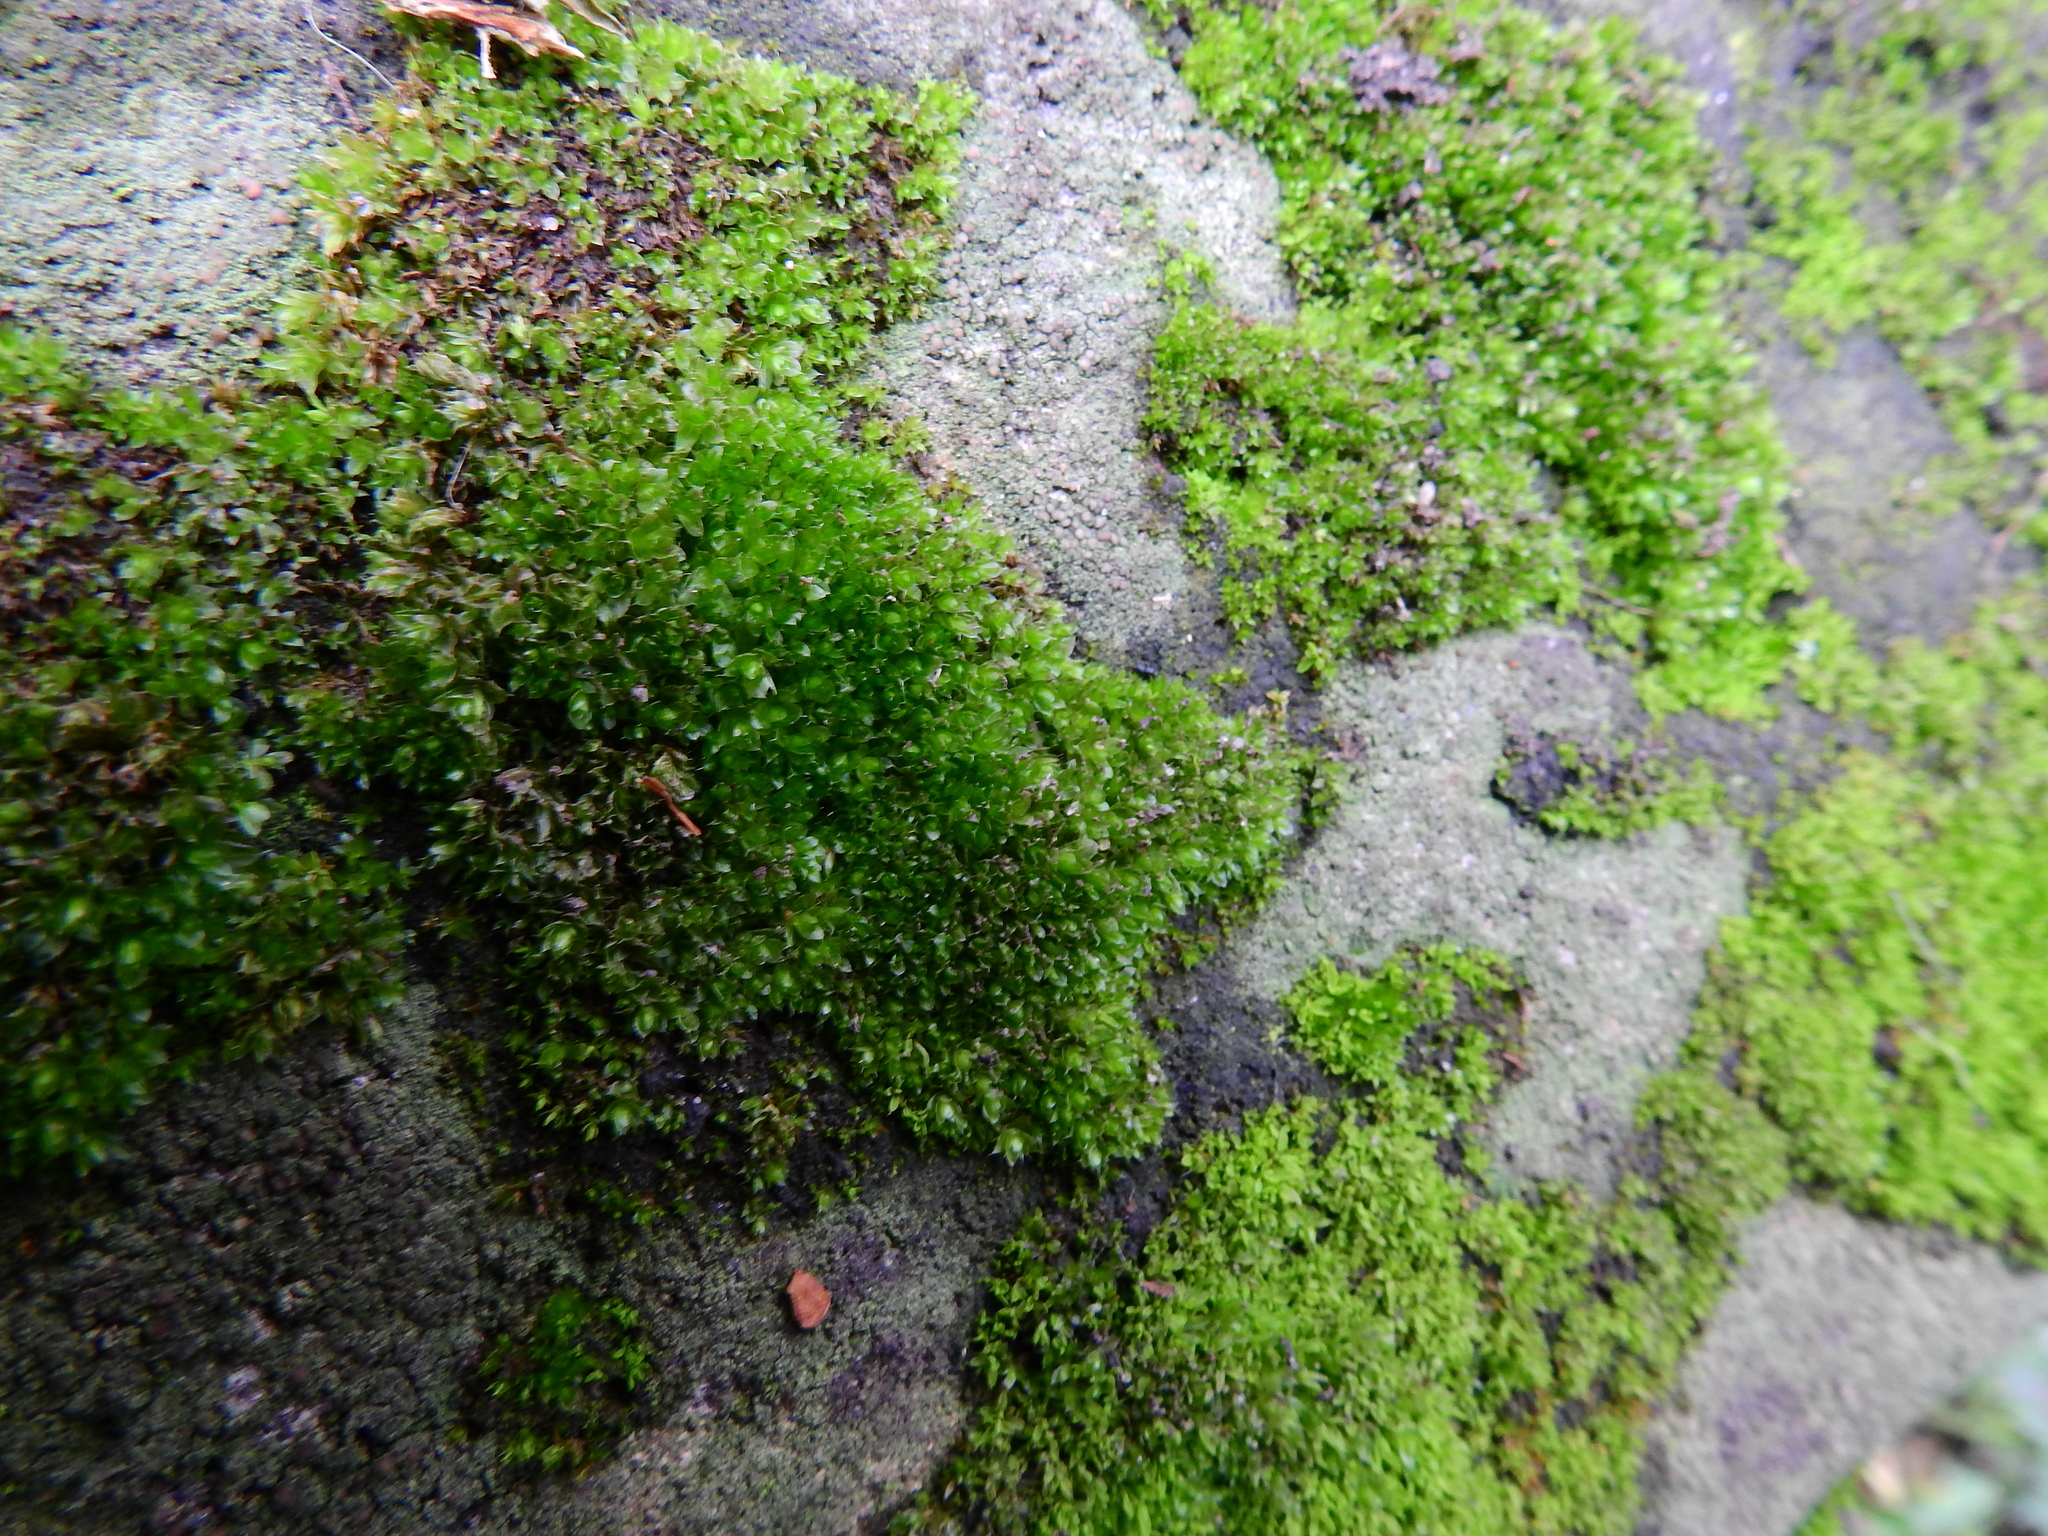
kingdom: Plantae
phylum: Bryophyta
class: Bryopsida
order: Bryales
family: Bryaceae
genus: Rosulabryum
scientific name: Rosulabryum capillare
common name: Capillary thread-moss
